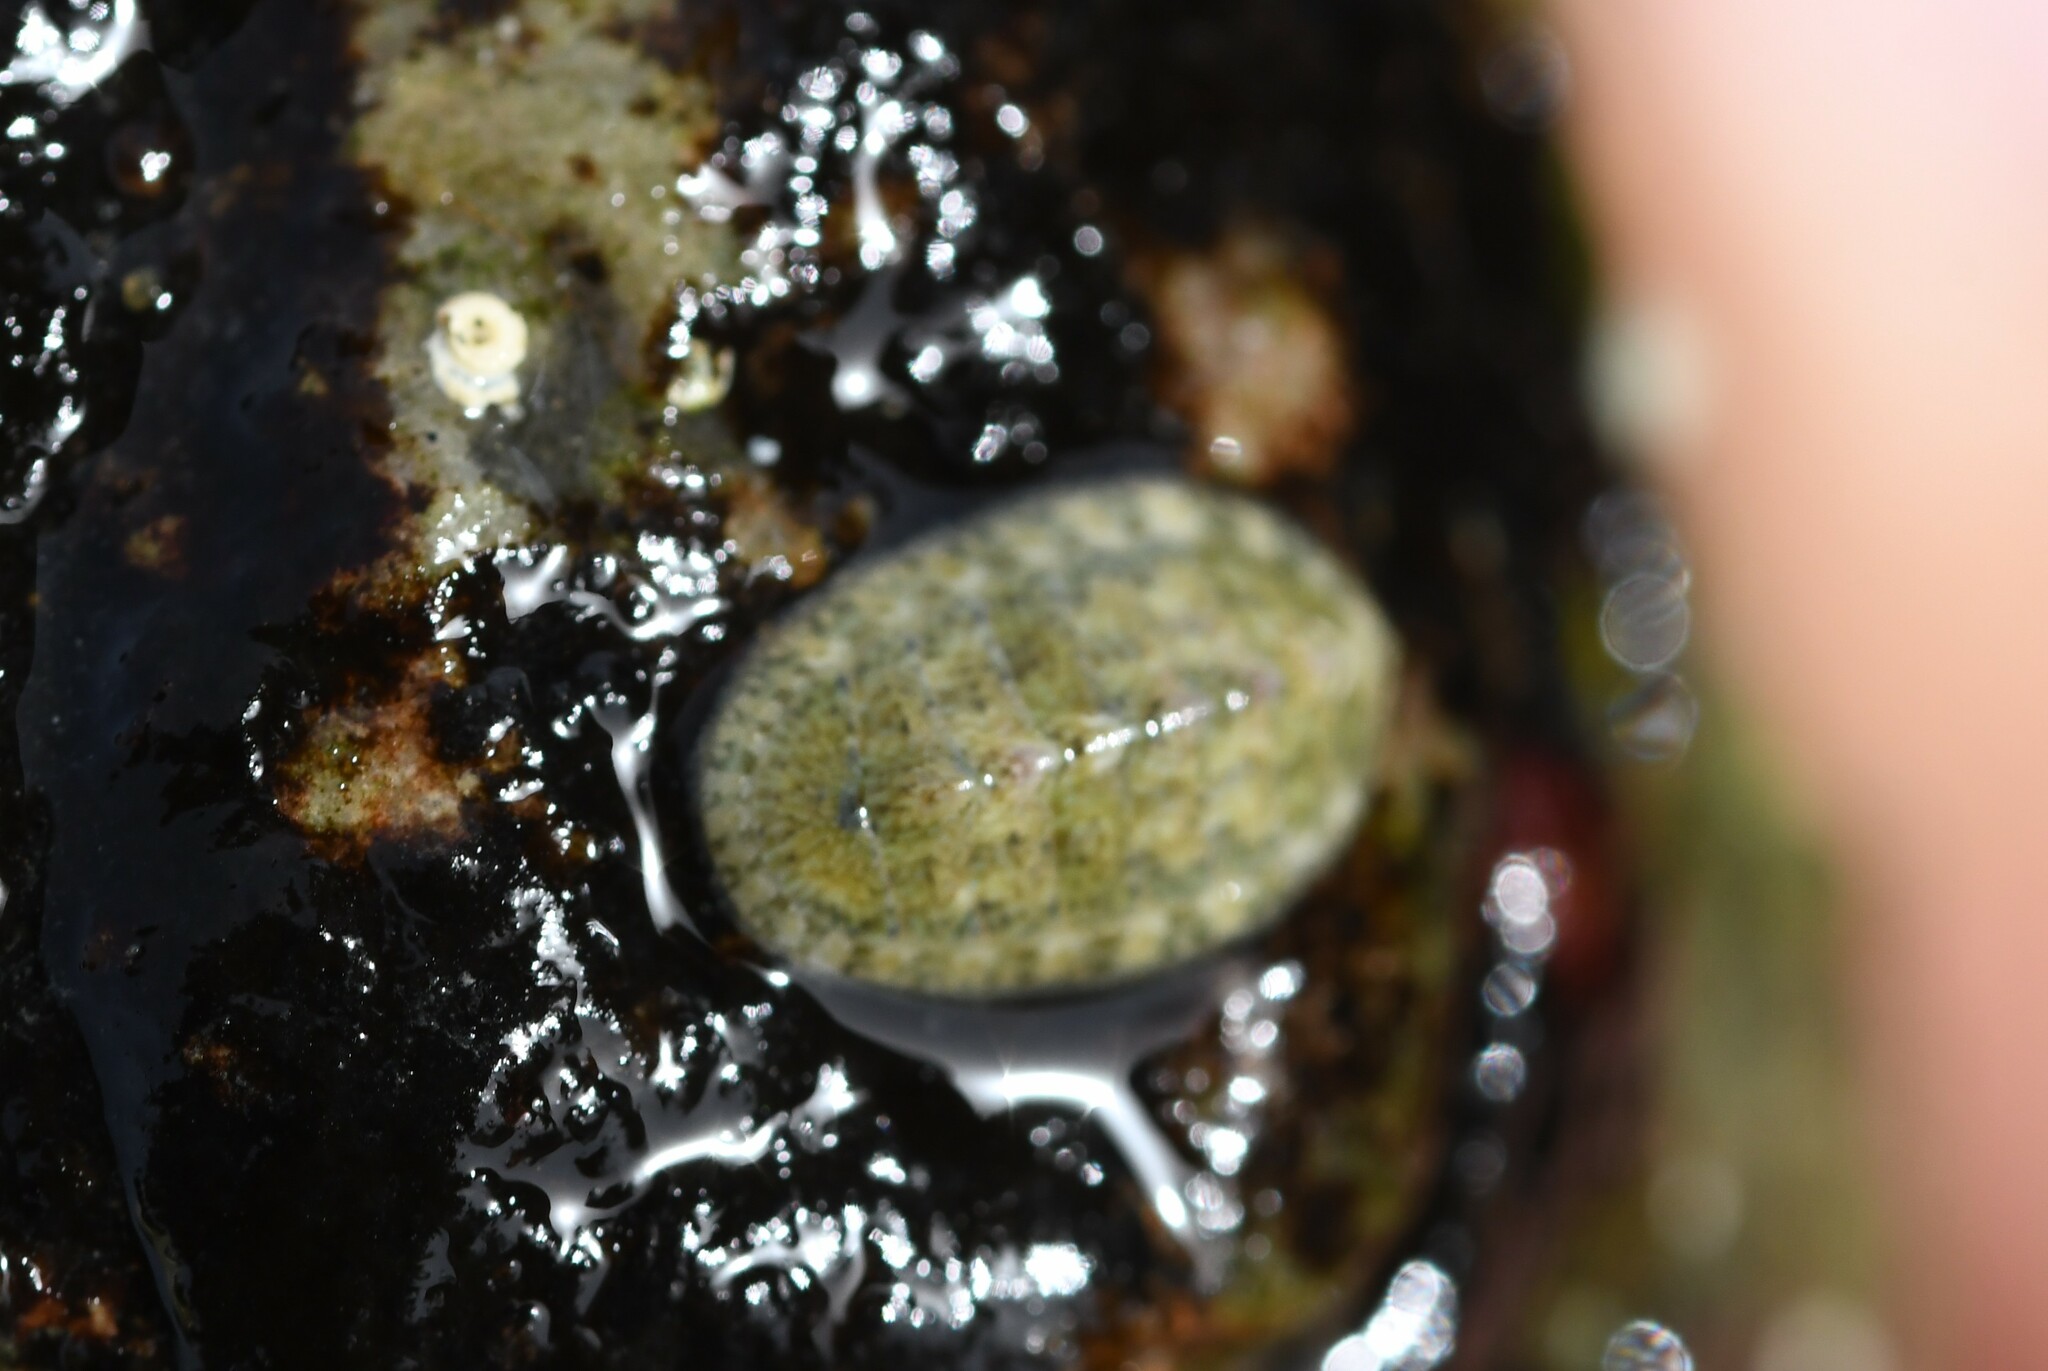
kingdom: Animalia
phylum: Mollusca
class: Polyplacophora
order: Chitonida
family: Tonicellidae
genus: Lepidochitona
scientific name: Lepidochitona cinerea
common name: Cinereous chiton
